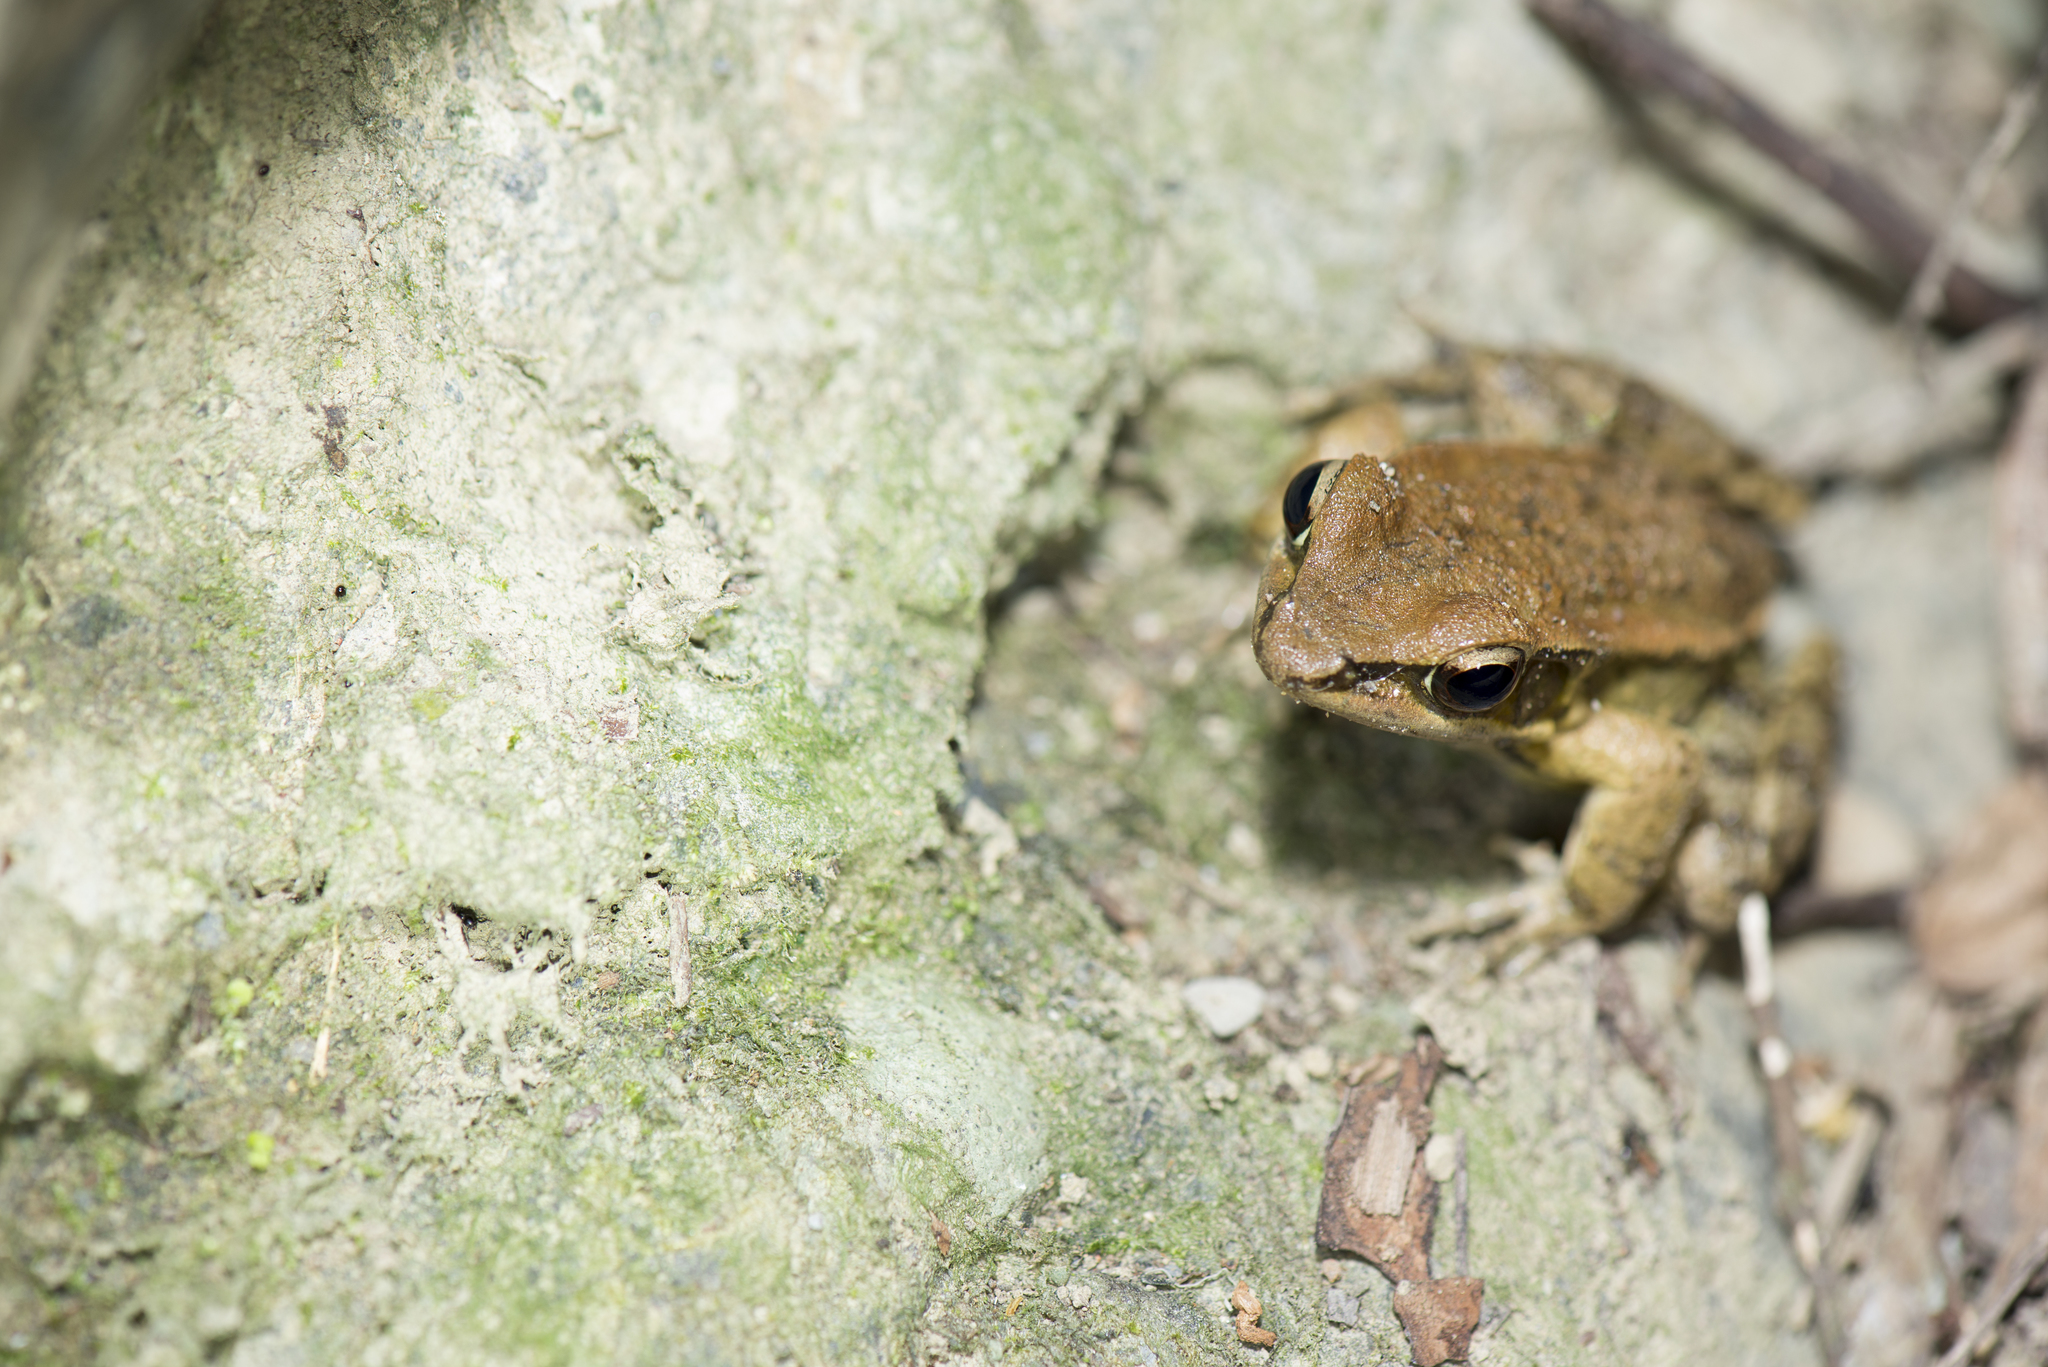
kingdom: Animalia
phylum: Chordata
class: Amphibia
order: Anura
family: Ranidae
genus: Hylarana
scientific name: Hylarana latouchii
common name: Broad-folded frog
